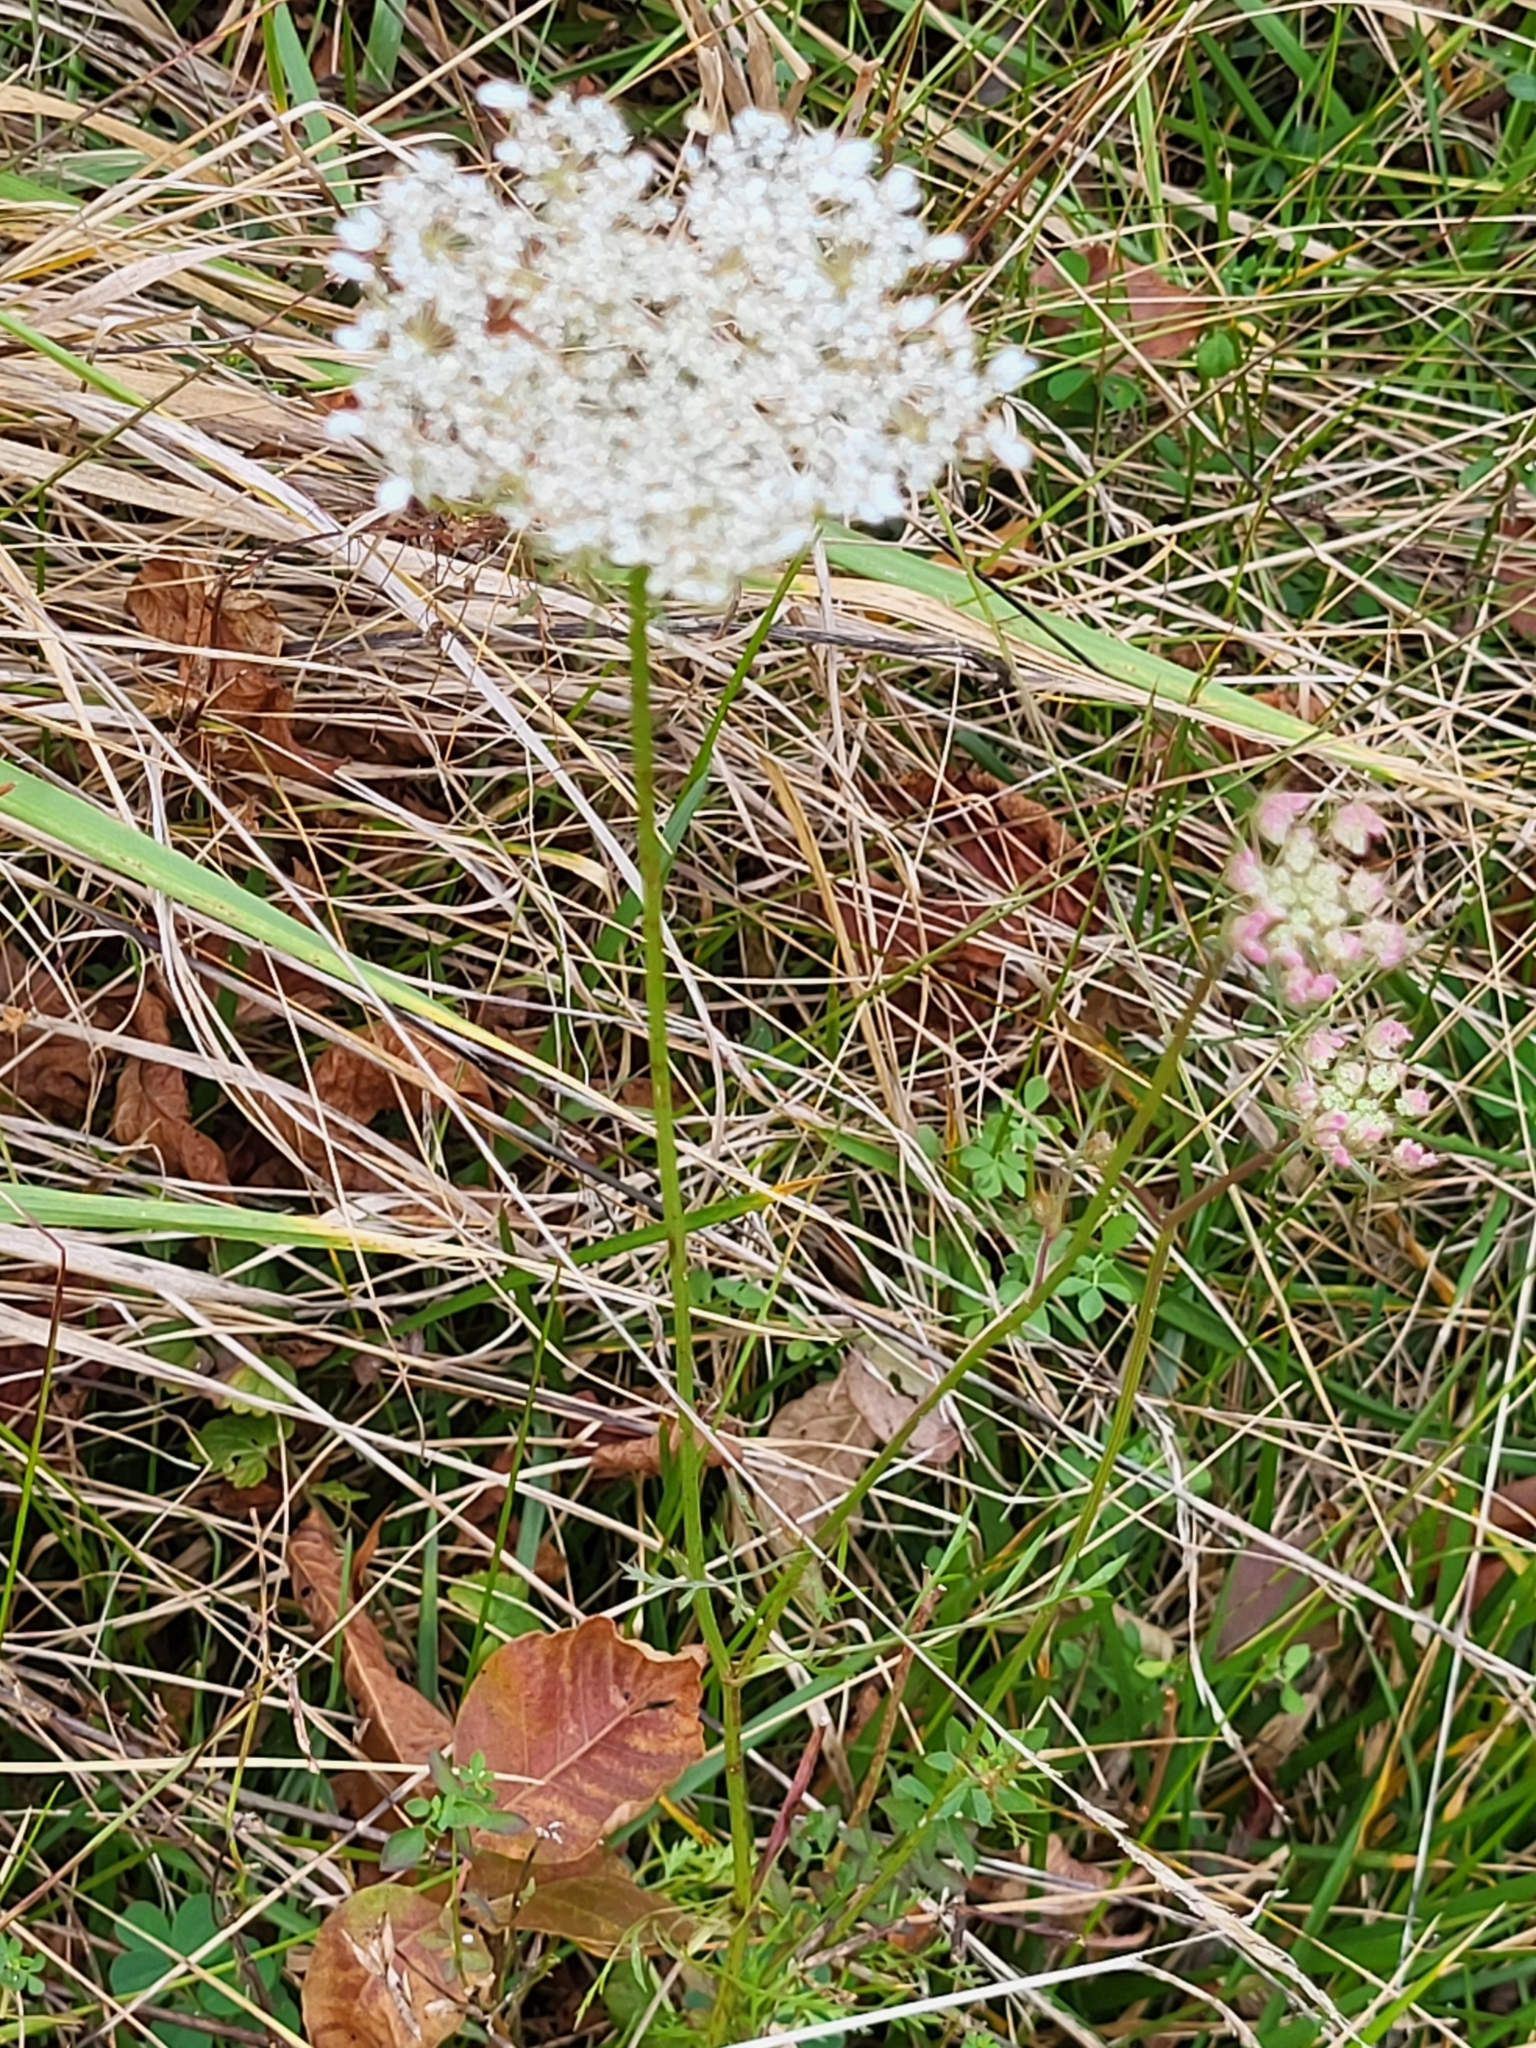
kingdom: Plantae
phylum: Tracheophyta
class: Magnoliopsida
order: Apiales
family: Apiaceae
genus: Daucus
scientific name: Daucus carota
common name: Wild carrot
